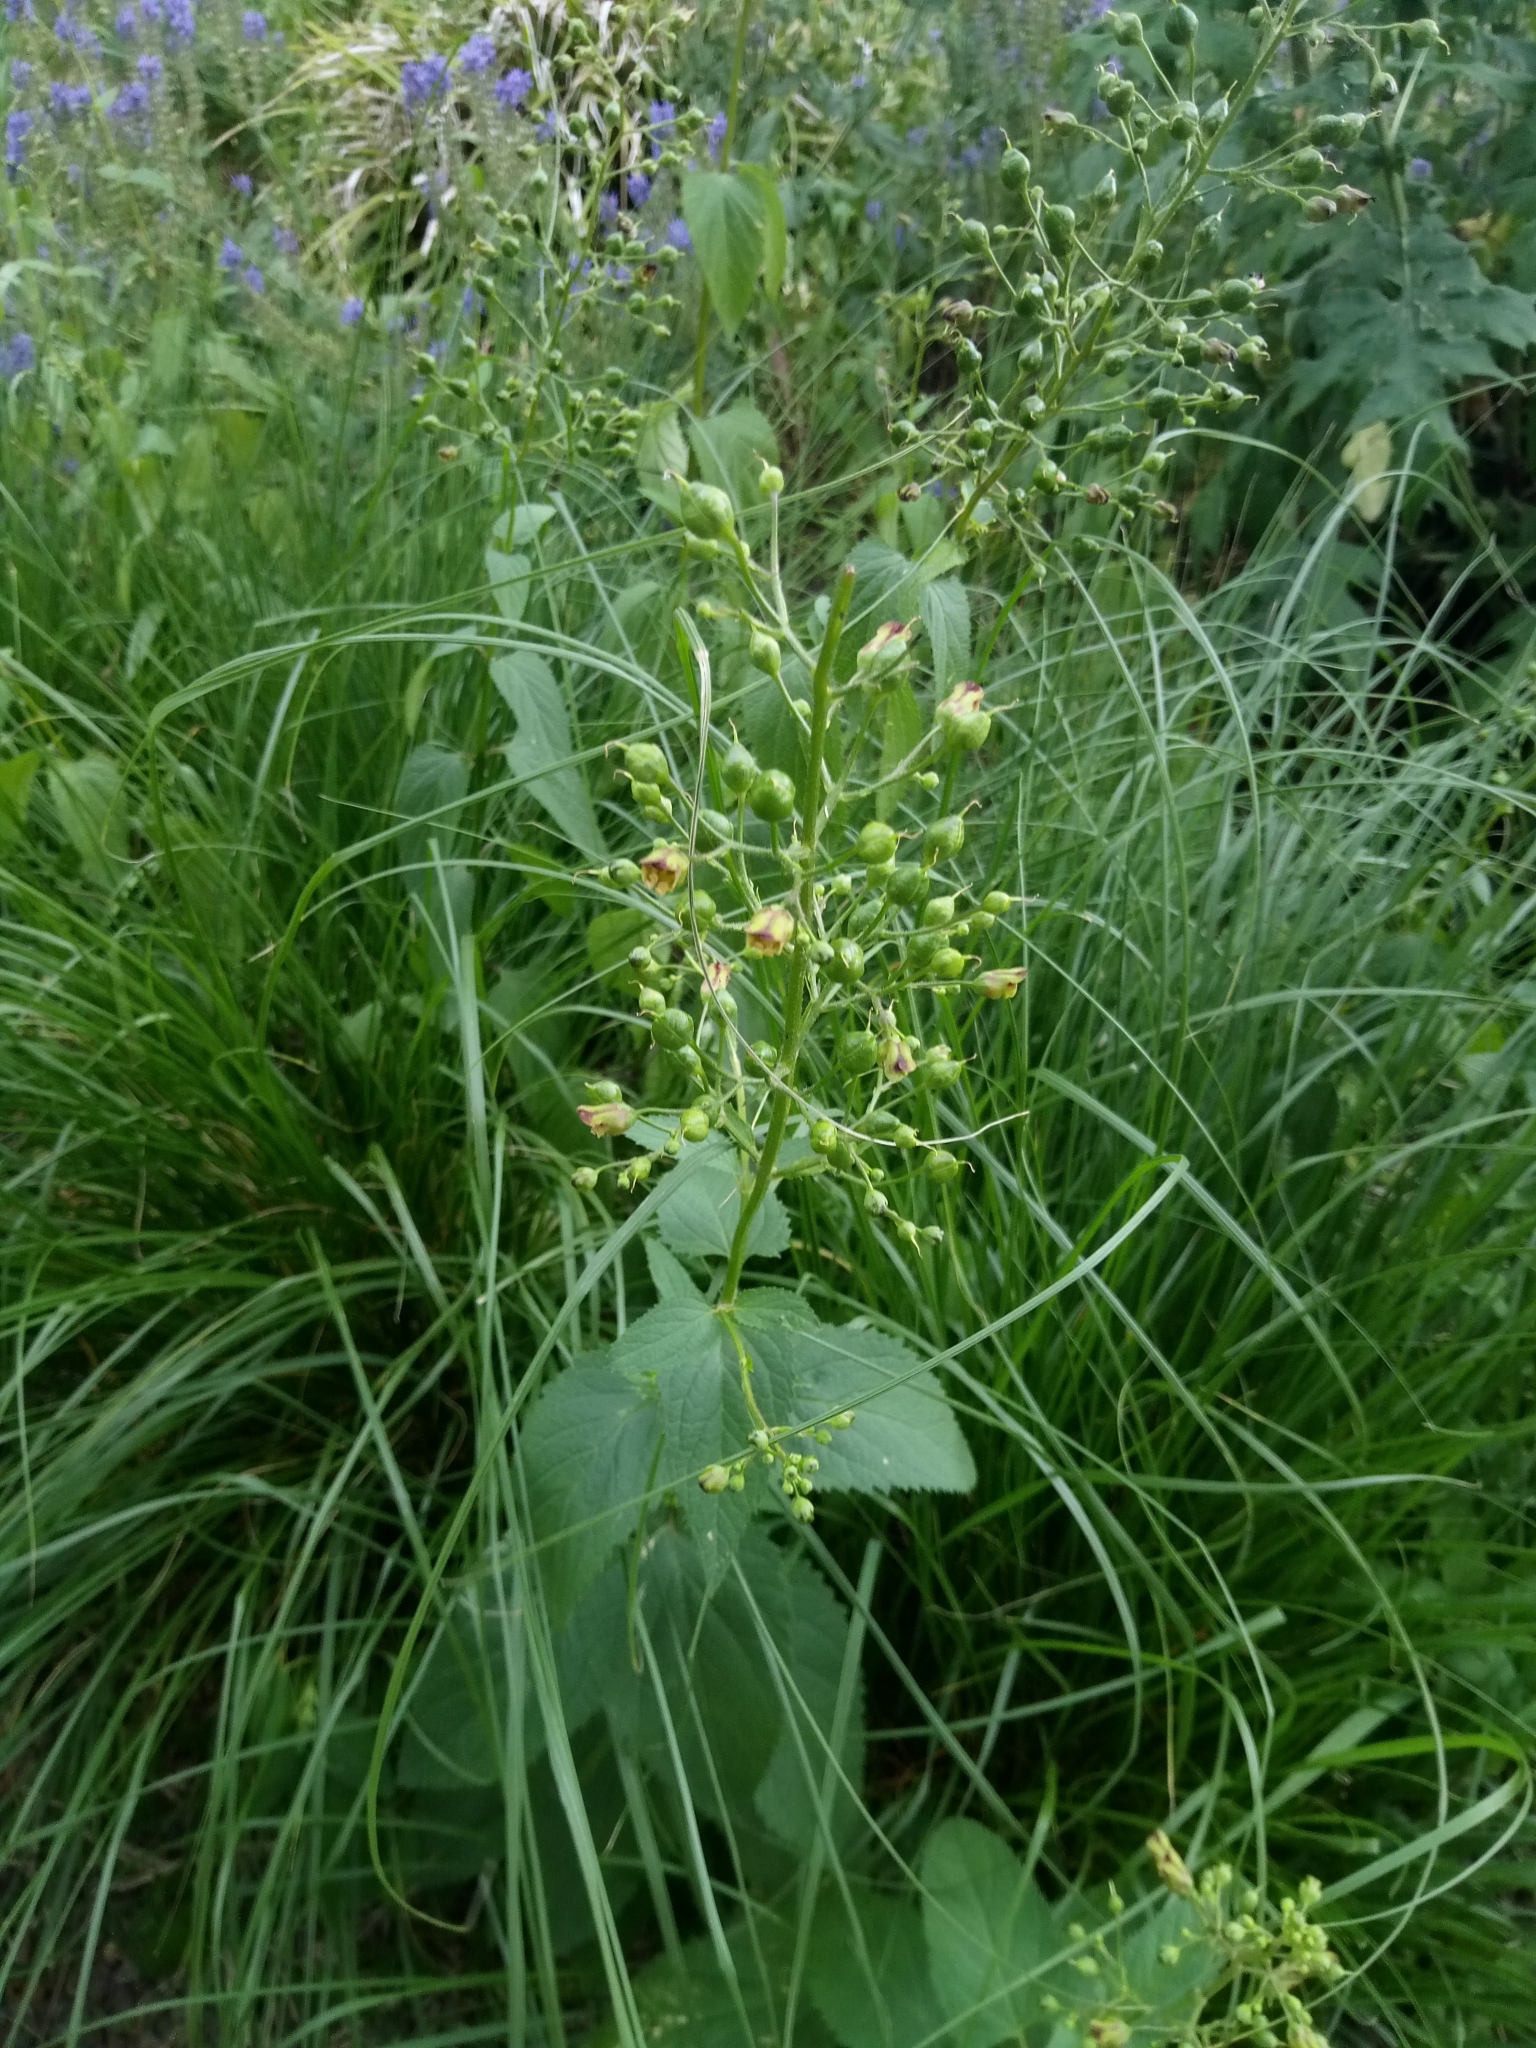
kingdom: Plantae
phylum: Tracheophyta
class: Magnoliopsida
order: Lamiales
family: Scrophulariaceae
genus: Scrophularia
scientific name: Scrophularia nodosa
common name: Common figwort
